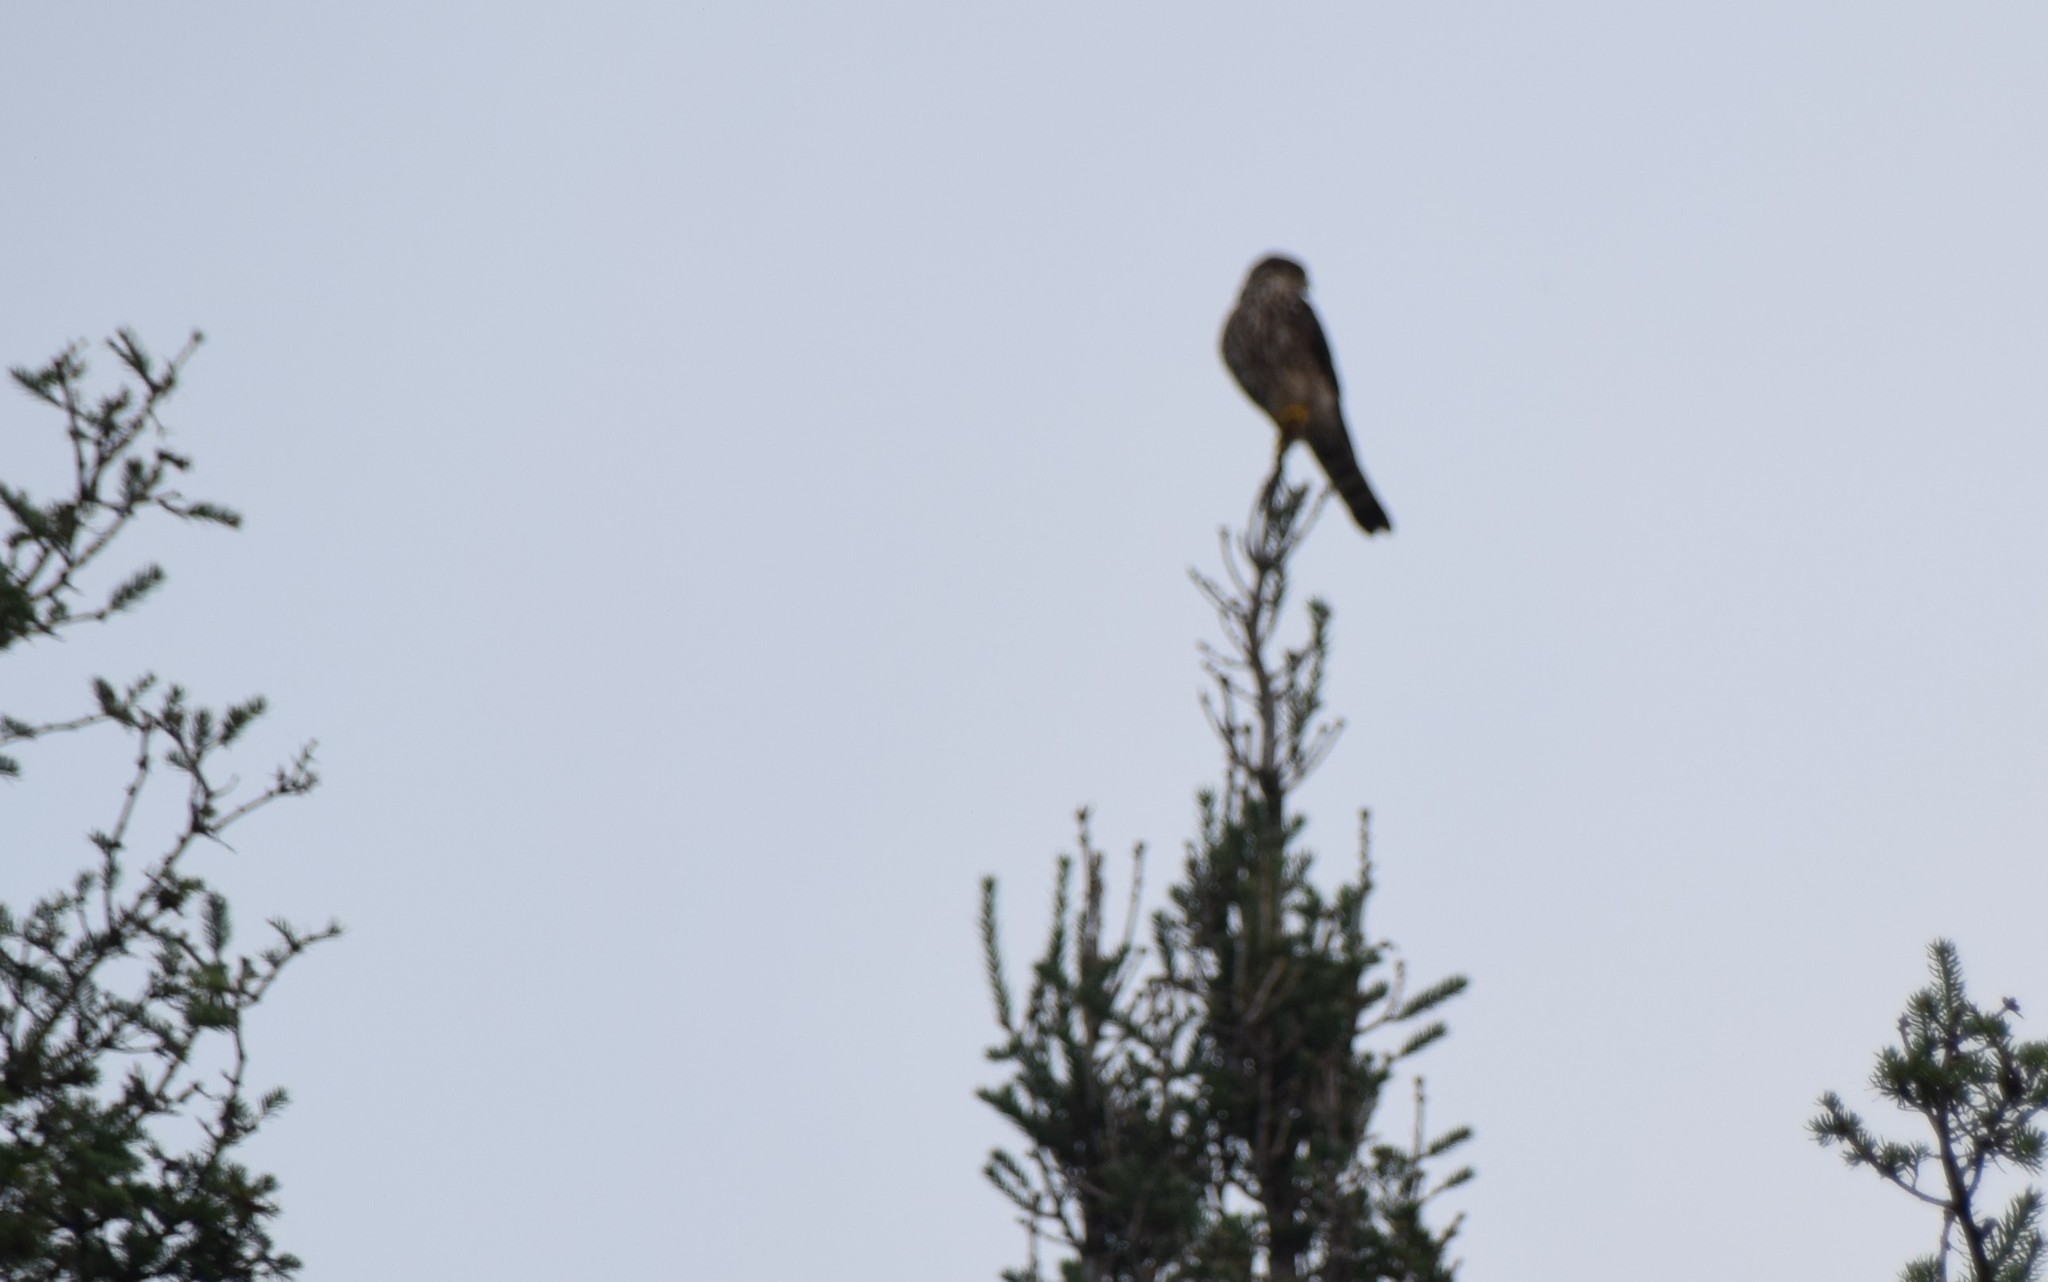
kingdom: Animalia
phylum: Chordata
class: Aves
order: Falconiformes
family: Falconidae
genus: Falco
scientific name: Falco columbarius
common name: Merlin
